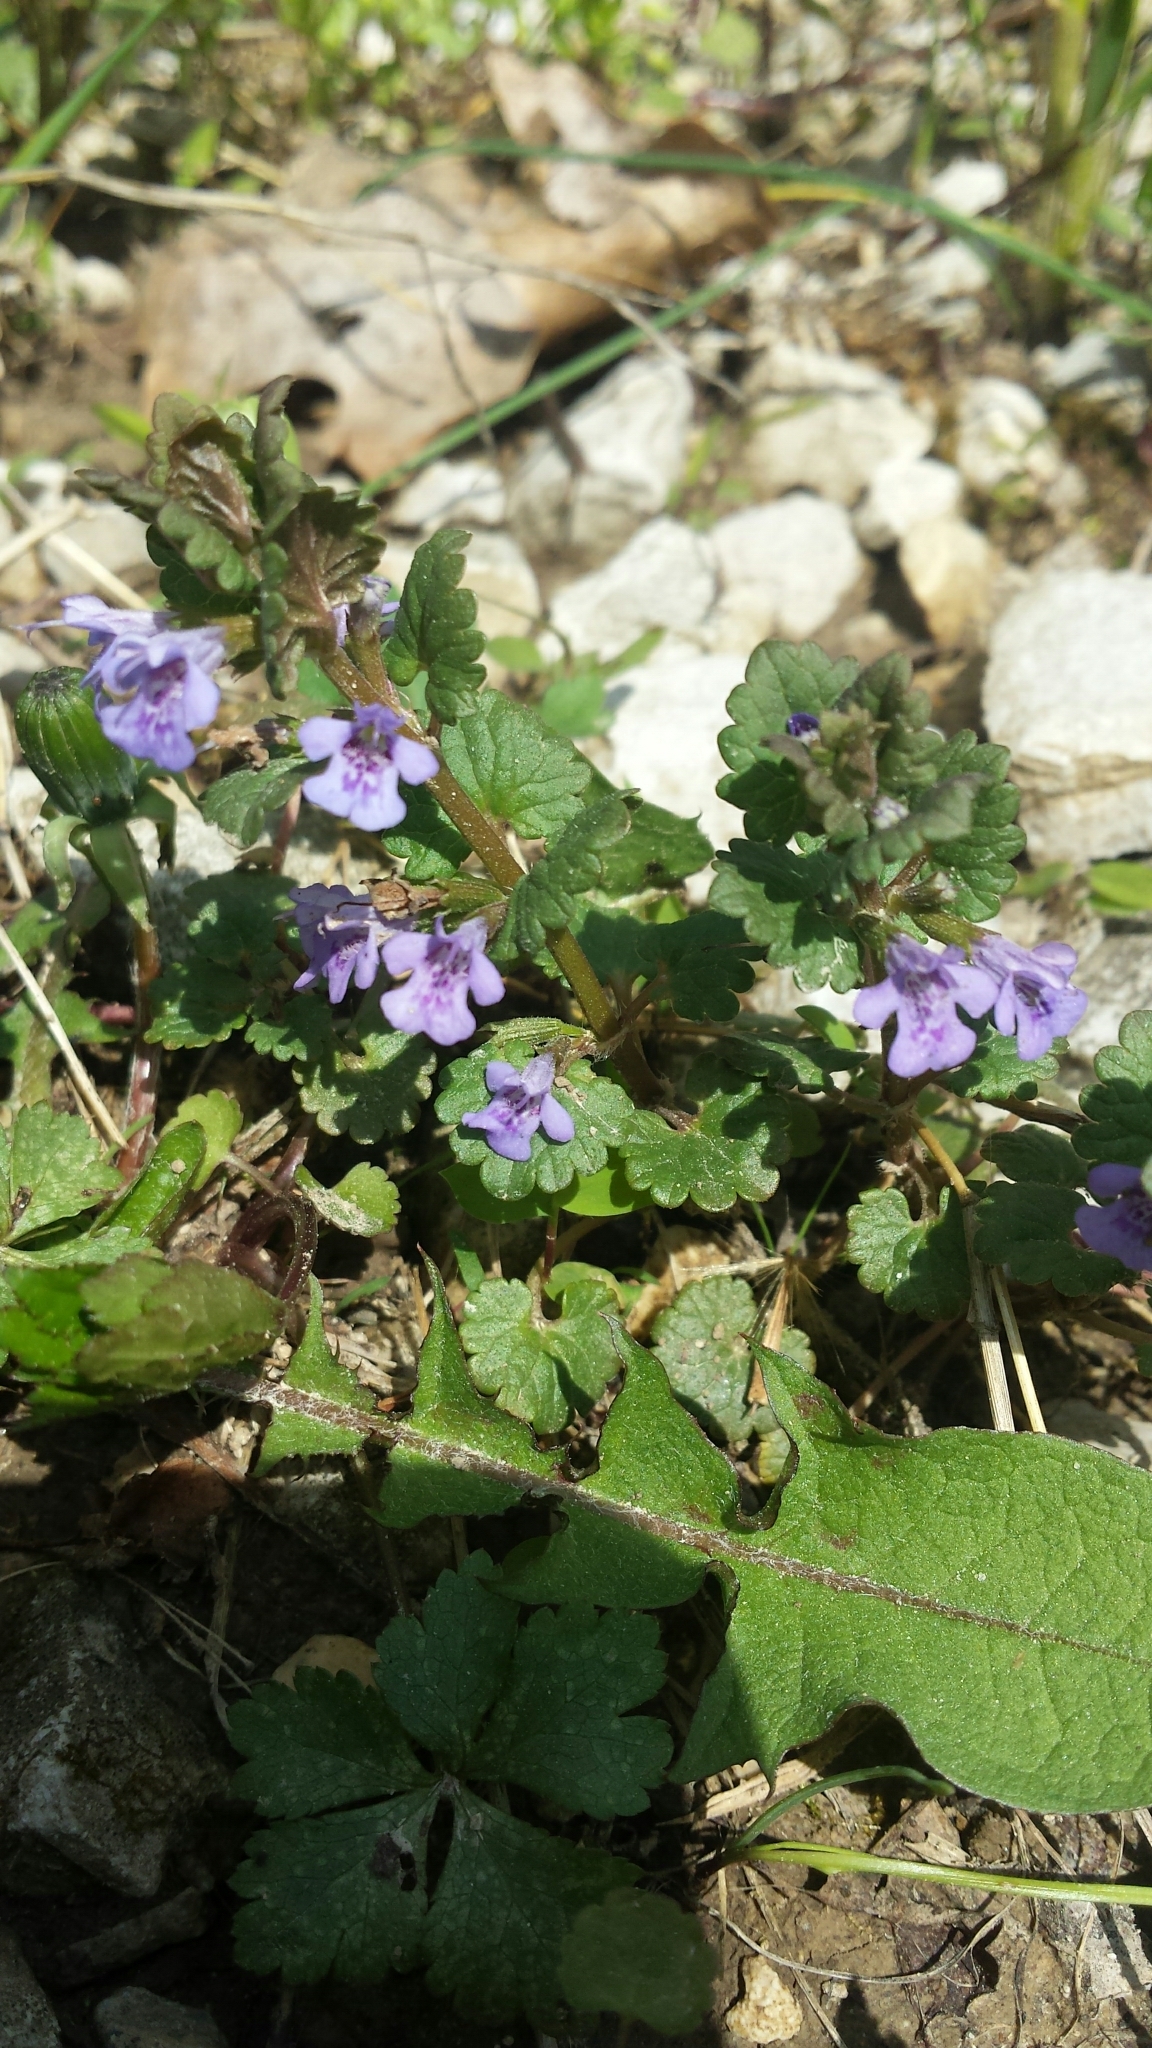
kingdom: Plantae
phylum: Tracheophyta
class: Magnoliopsida
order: Lamiales
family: Lamiaceae
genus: Glechoma
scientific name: Glechoma hederacea
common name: Ground ivy
